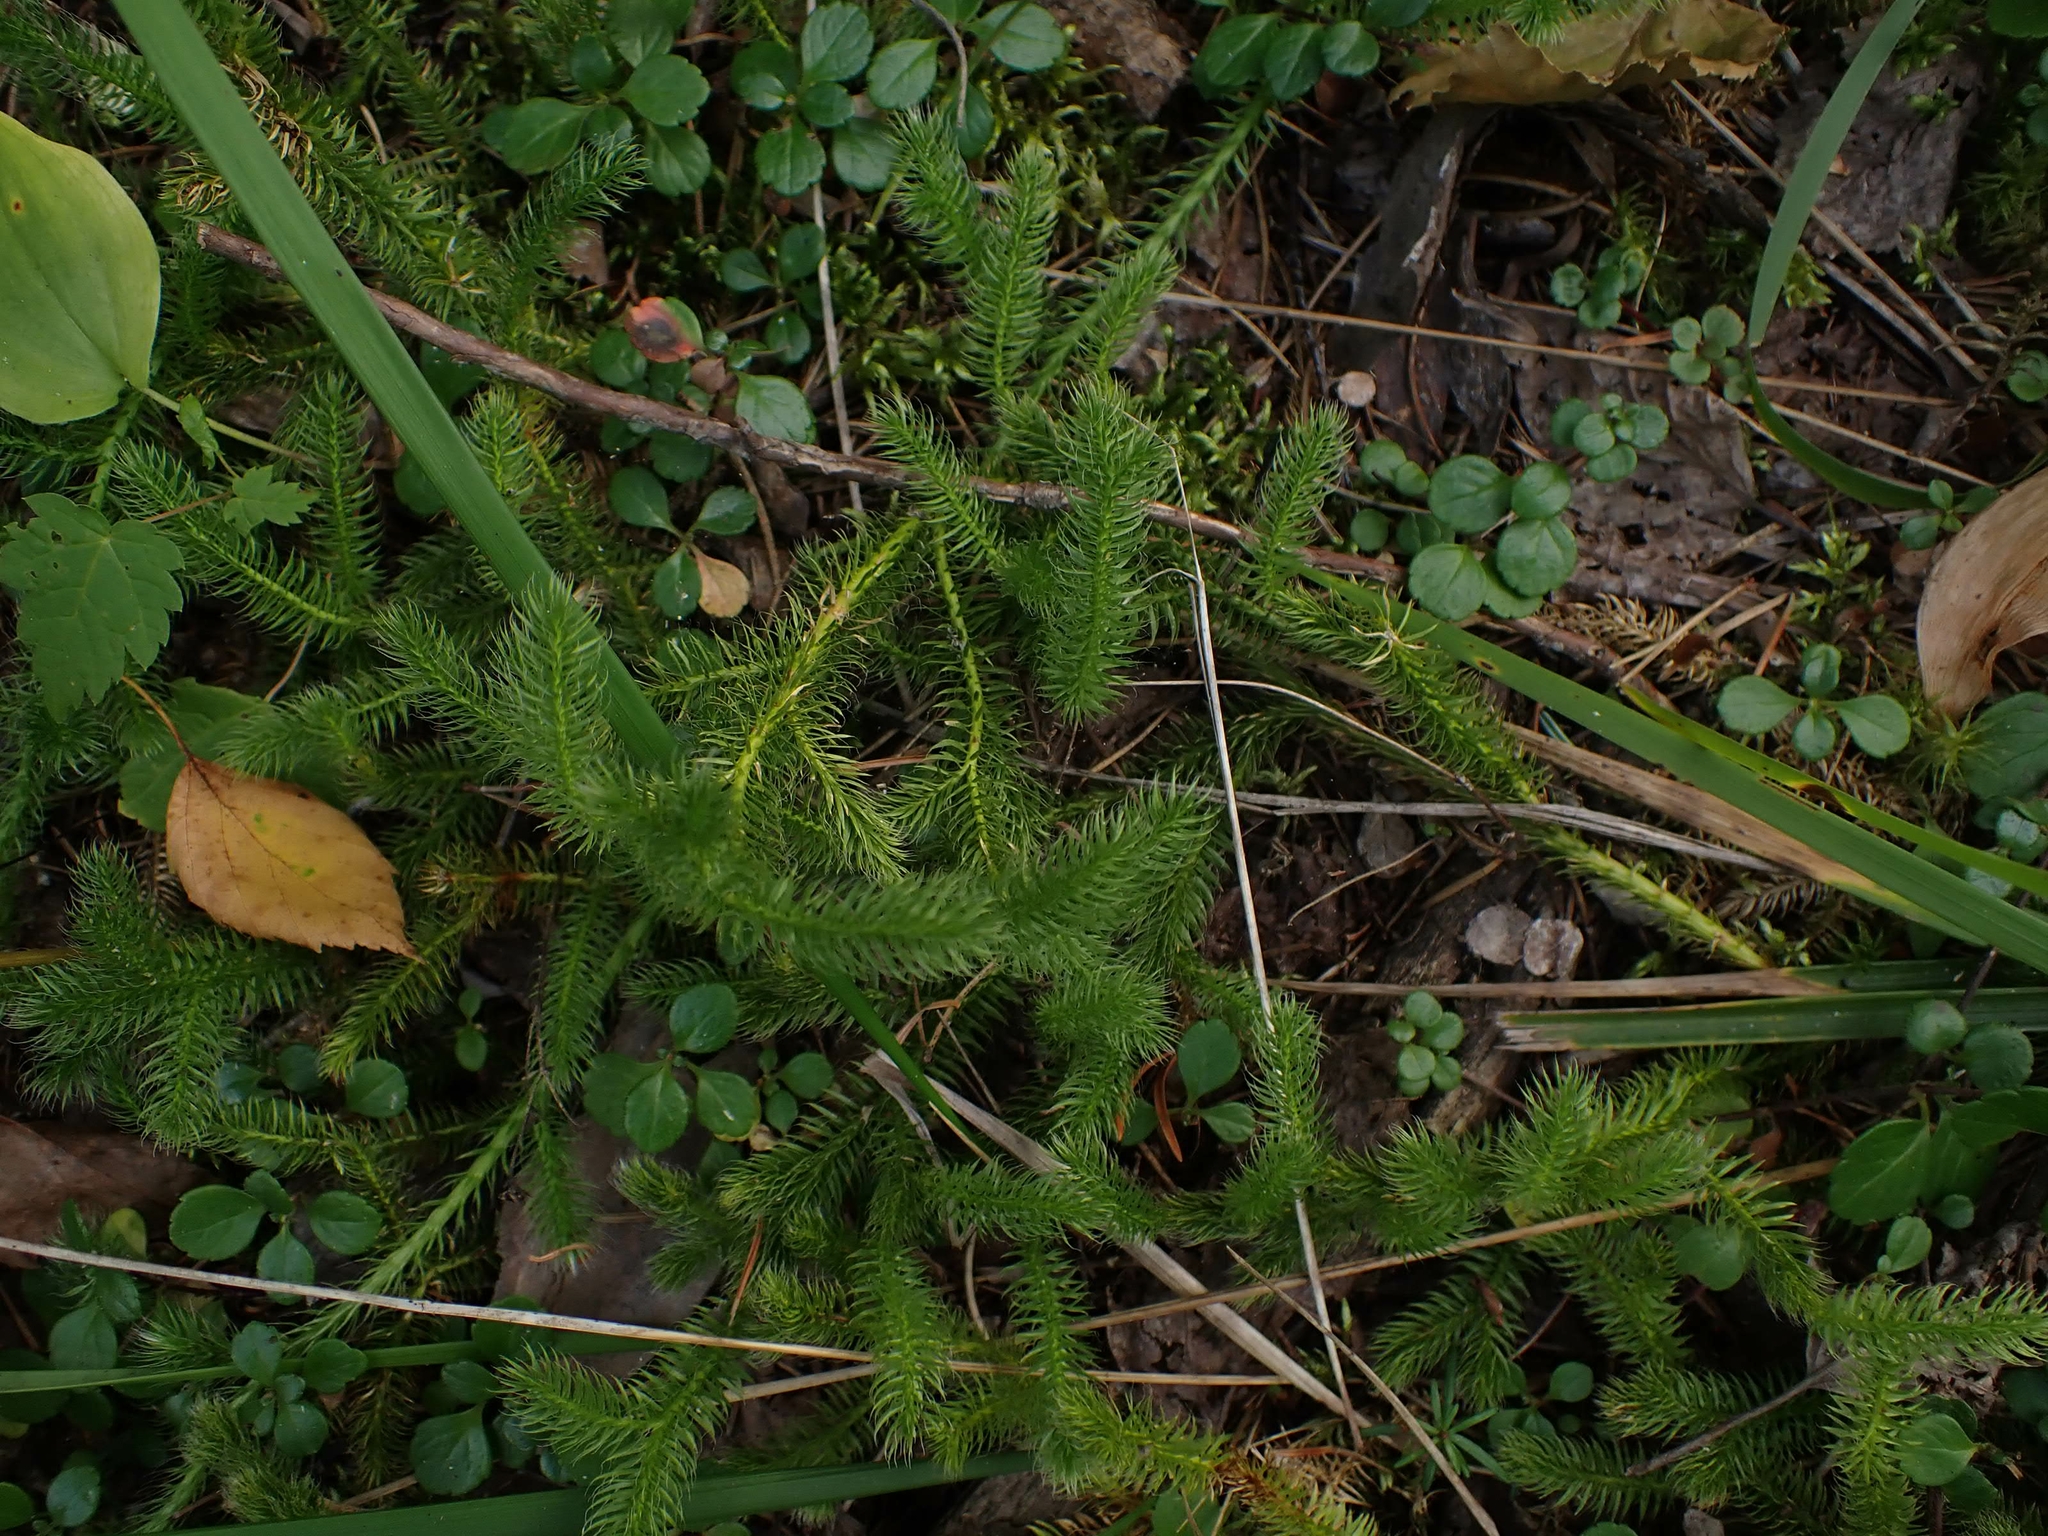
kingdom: Plantae
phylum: Tracheophyta
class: Lycopodiopsida
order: Lycopodiales
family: Lycopodiaceae
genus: Lycopodium
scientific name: Lycopodium clavatum
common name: Stag's-horn clubmoss
